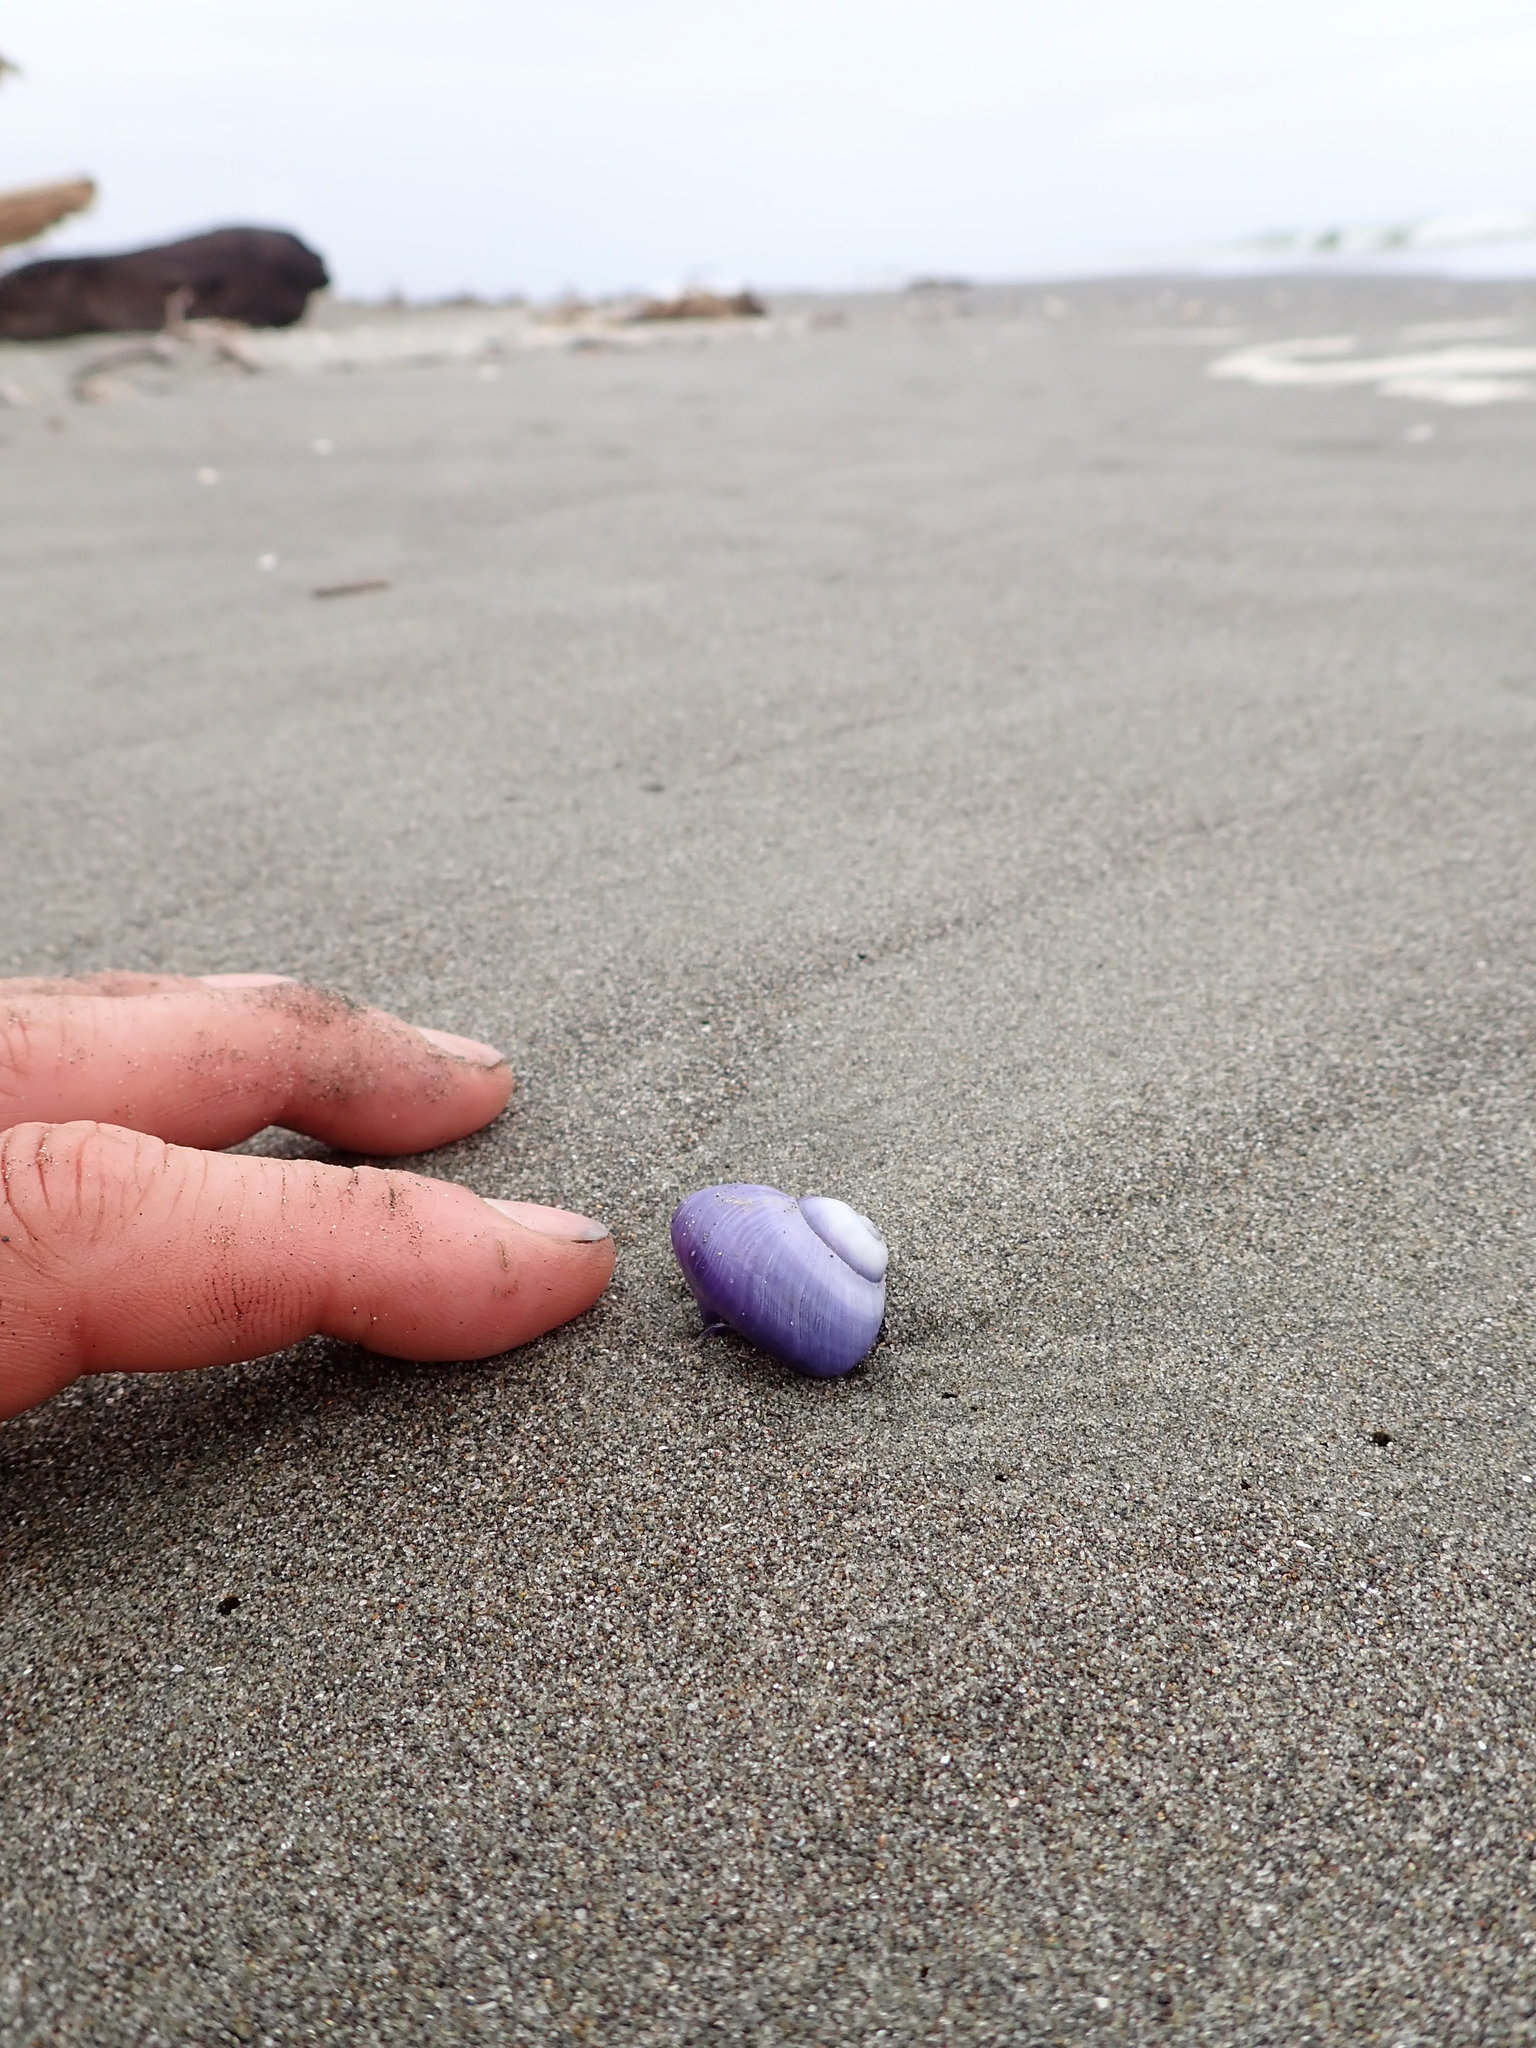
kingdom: Animalia
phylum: Mollusca
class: Gastropoda
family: Epitoniidae
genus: Janthina
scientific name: Janthina janthina
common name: Common janthina
